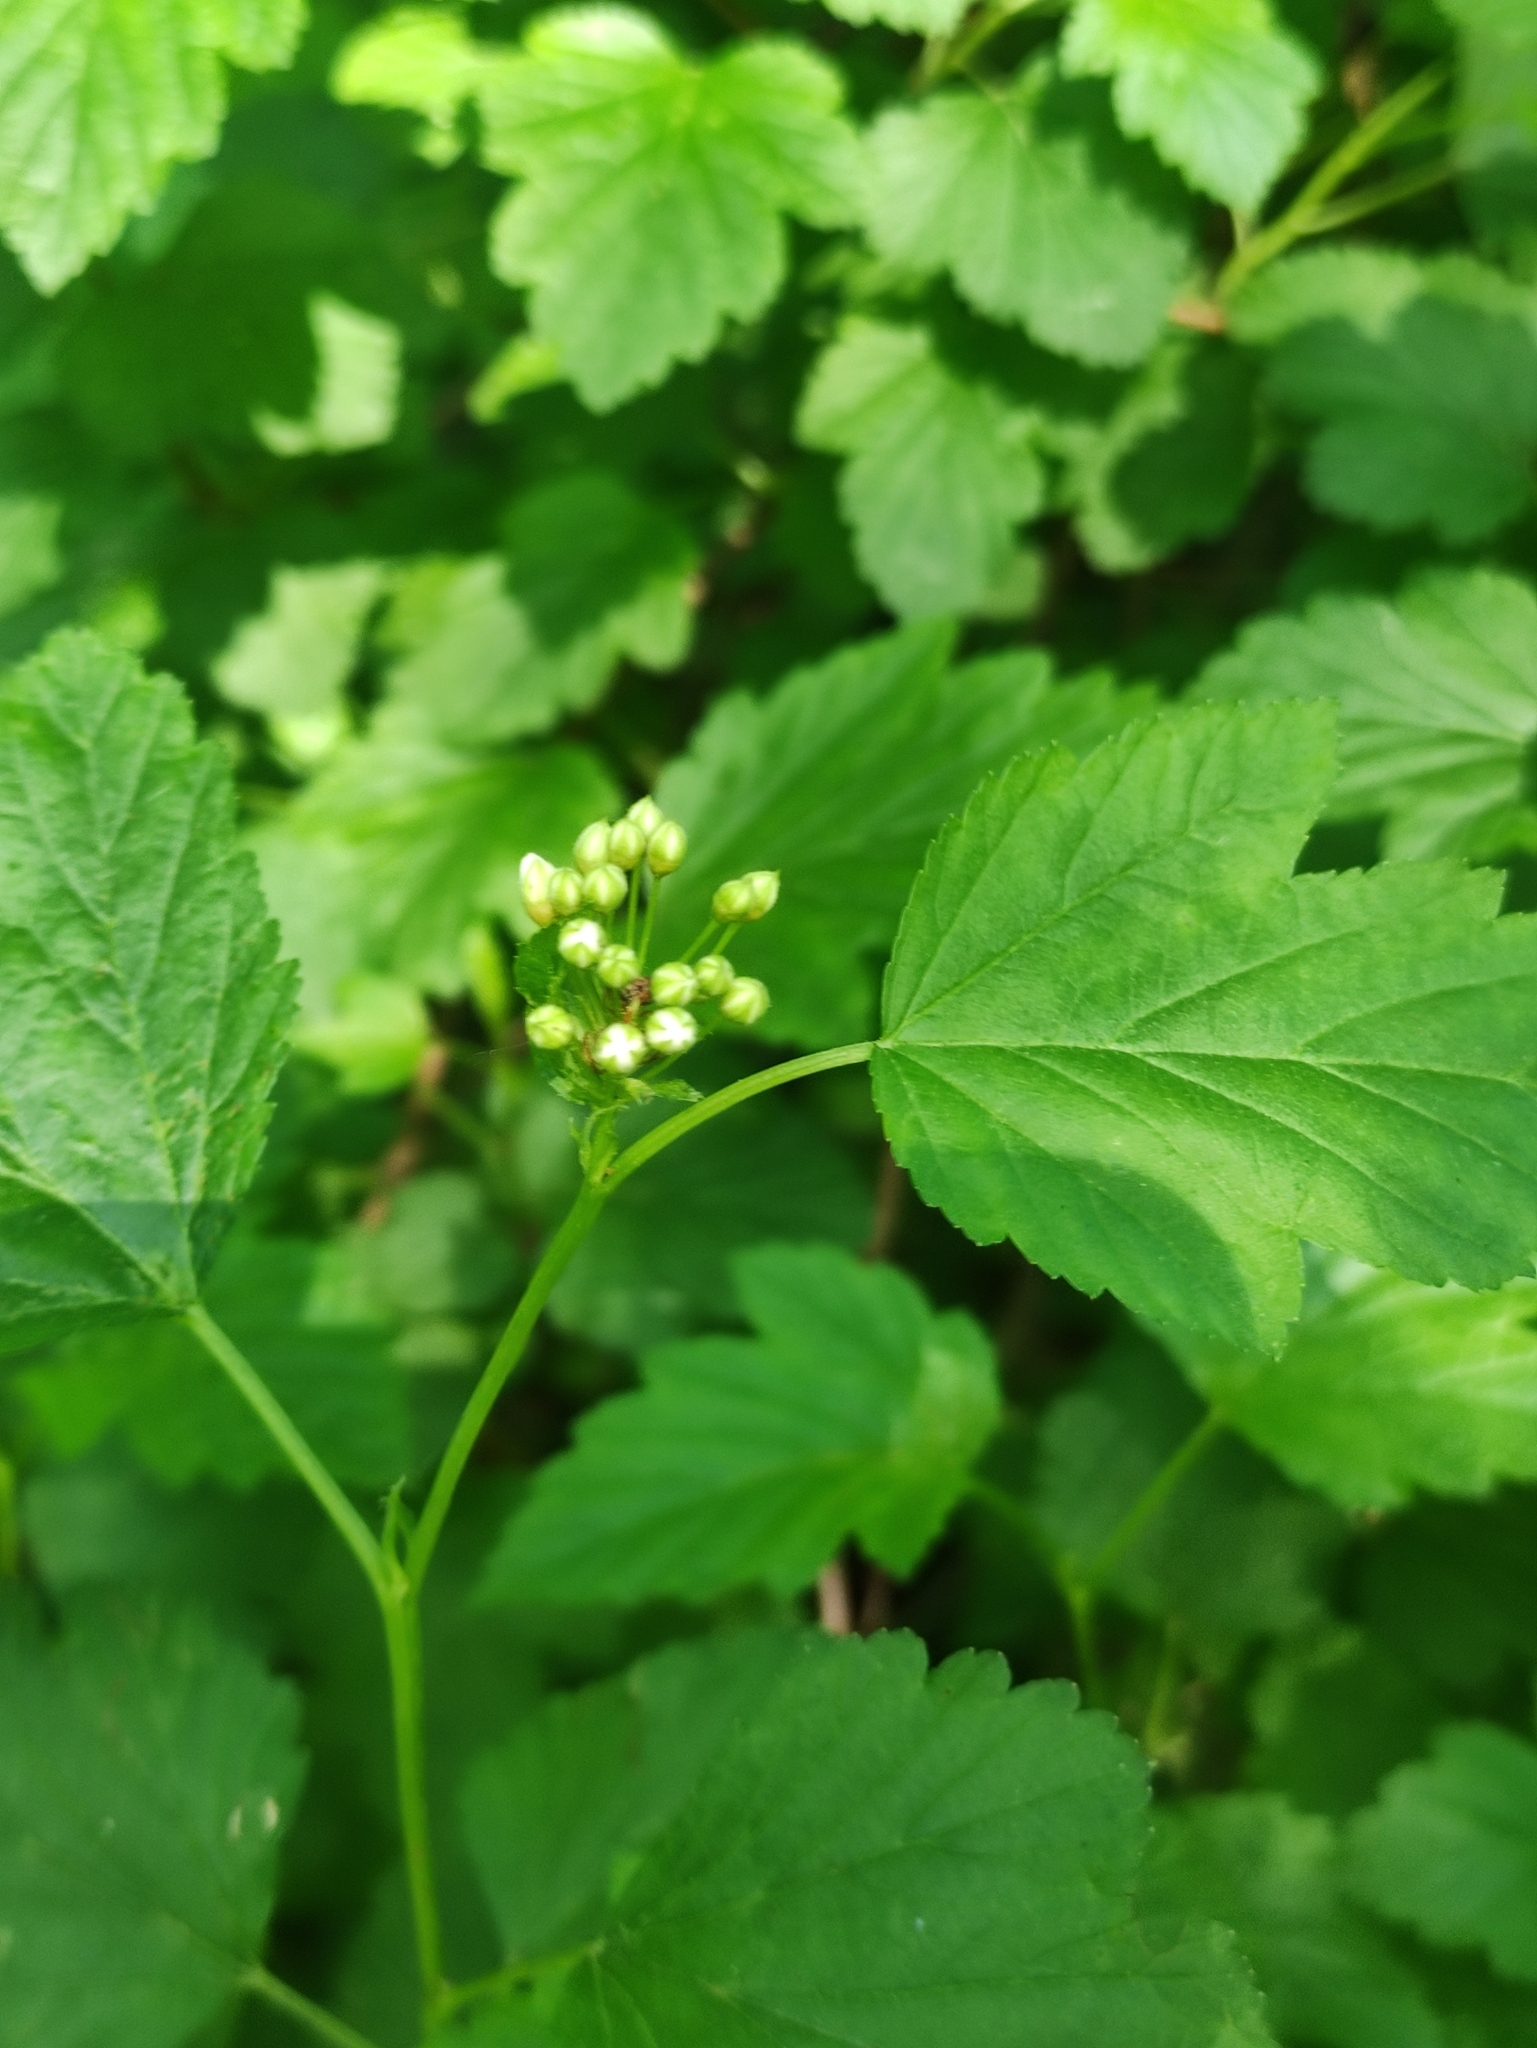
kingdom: Plantae
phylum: Tracheophyta
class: Magnoliopsida
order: Rosales
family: Rosaceae
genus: Physocarpus
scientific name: Physocarpus opulifolius
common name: Ninebark
